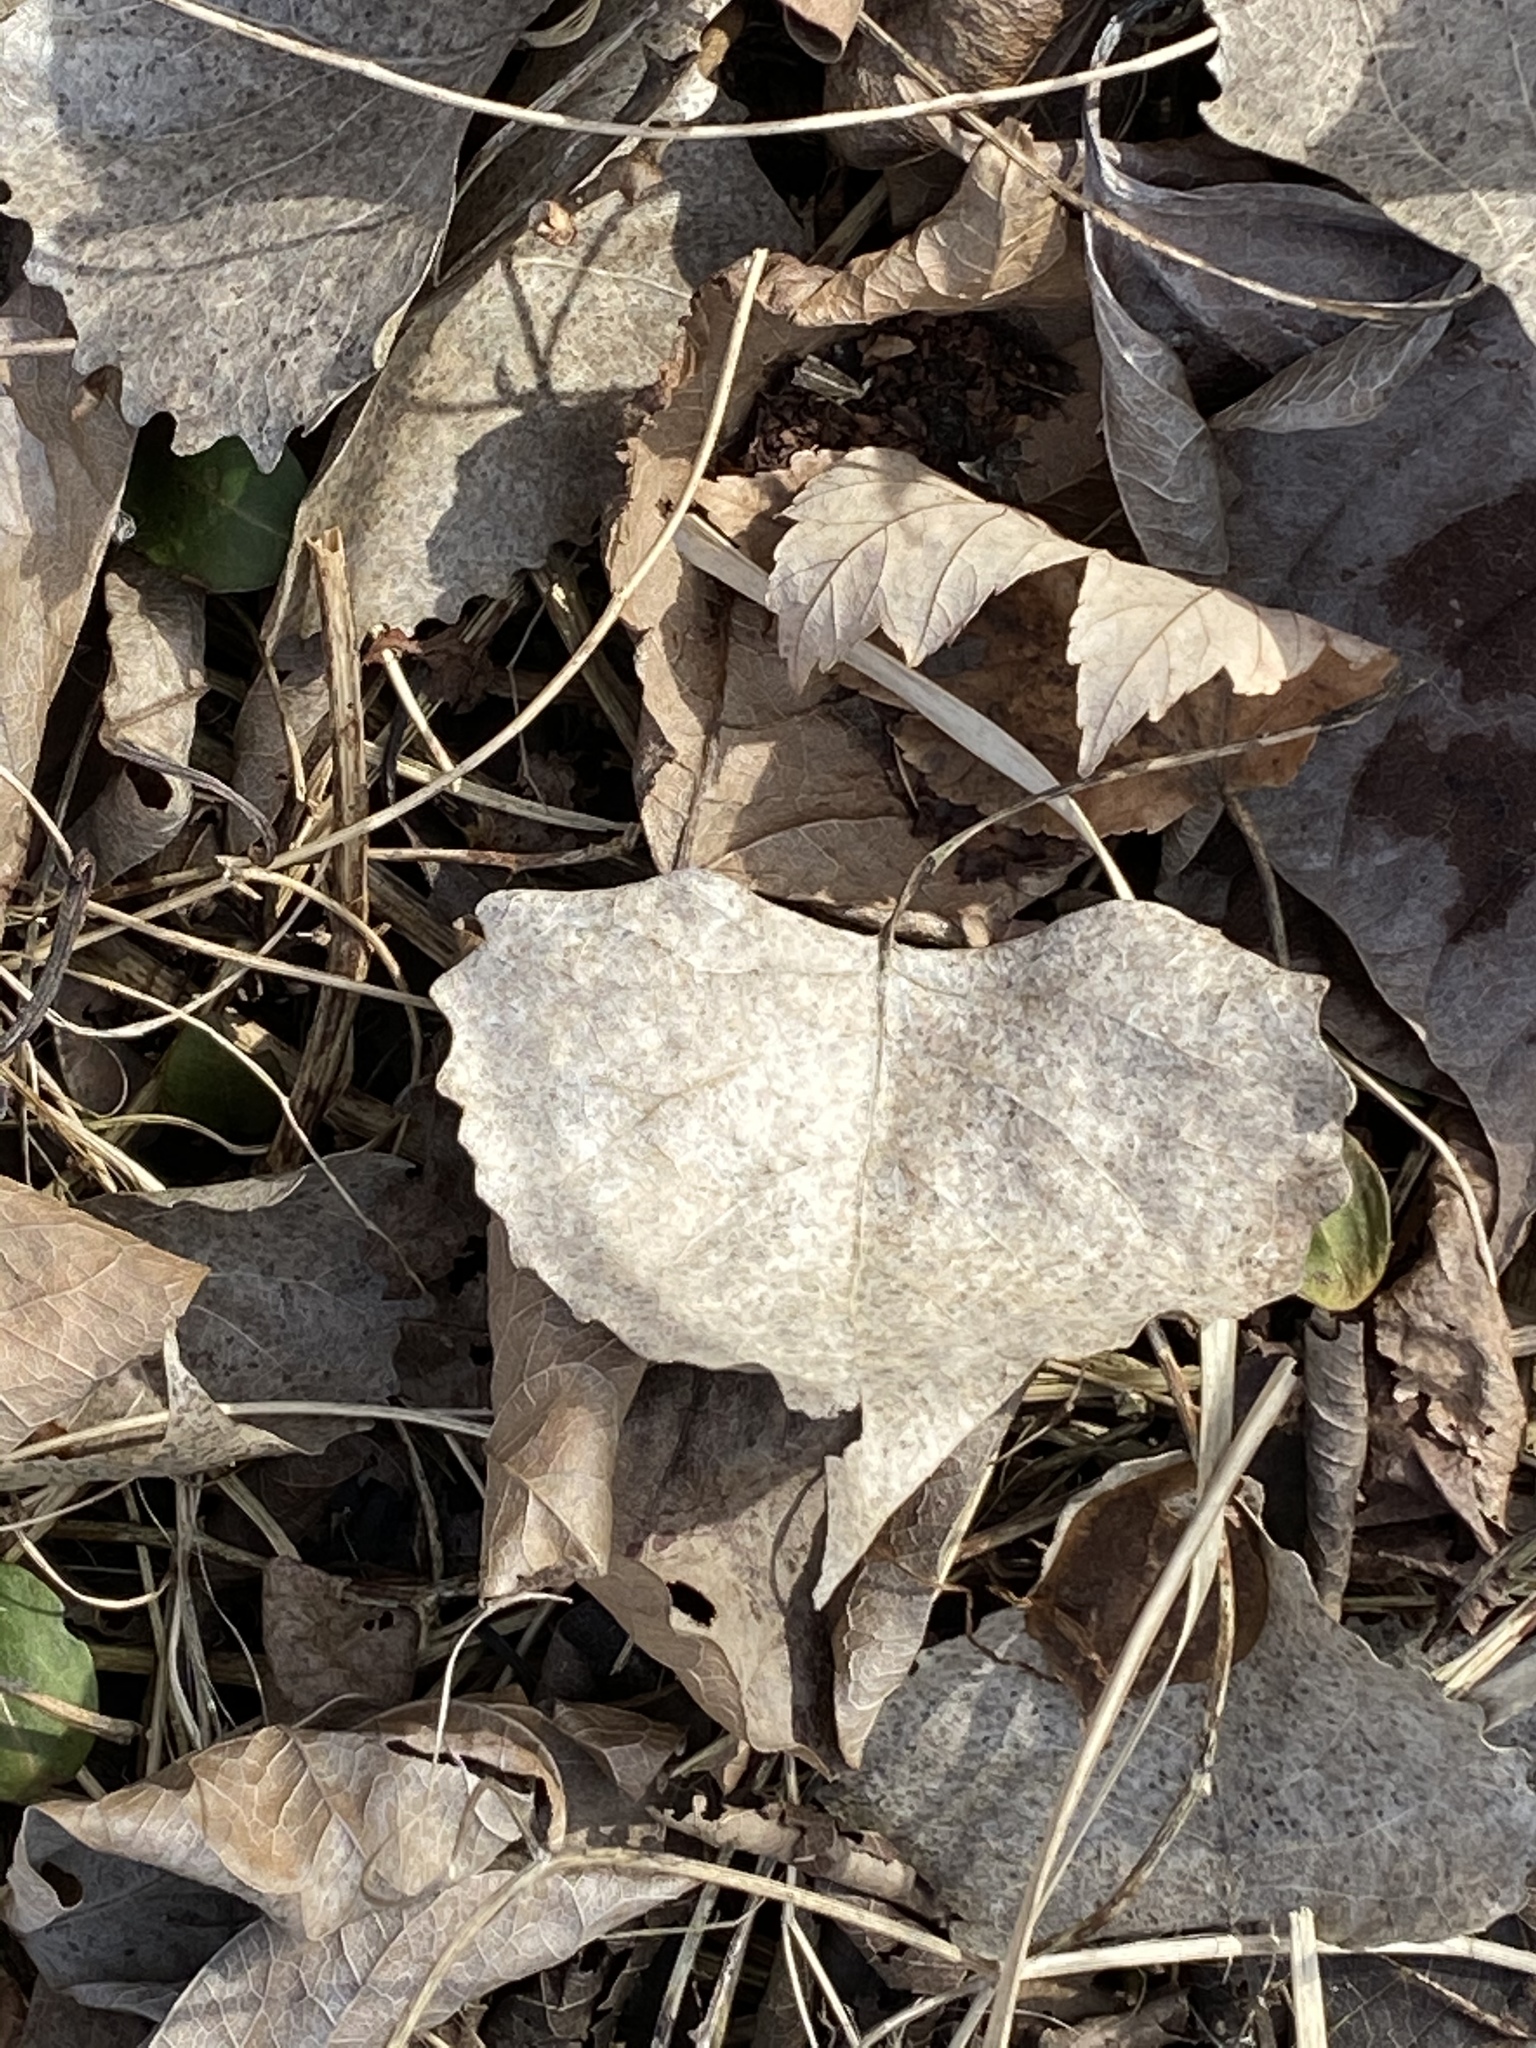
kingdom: Plantae
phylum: Tracheophyta
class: Magnoliopsida
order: Malpighiales
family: Salicaceae
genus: Populus
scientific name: Populus deltoides
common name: Eastern cottonwood
